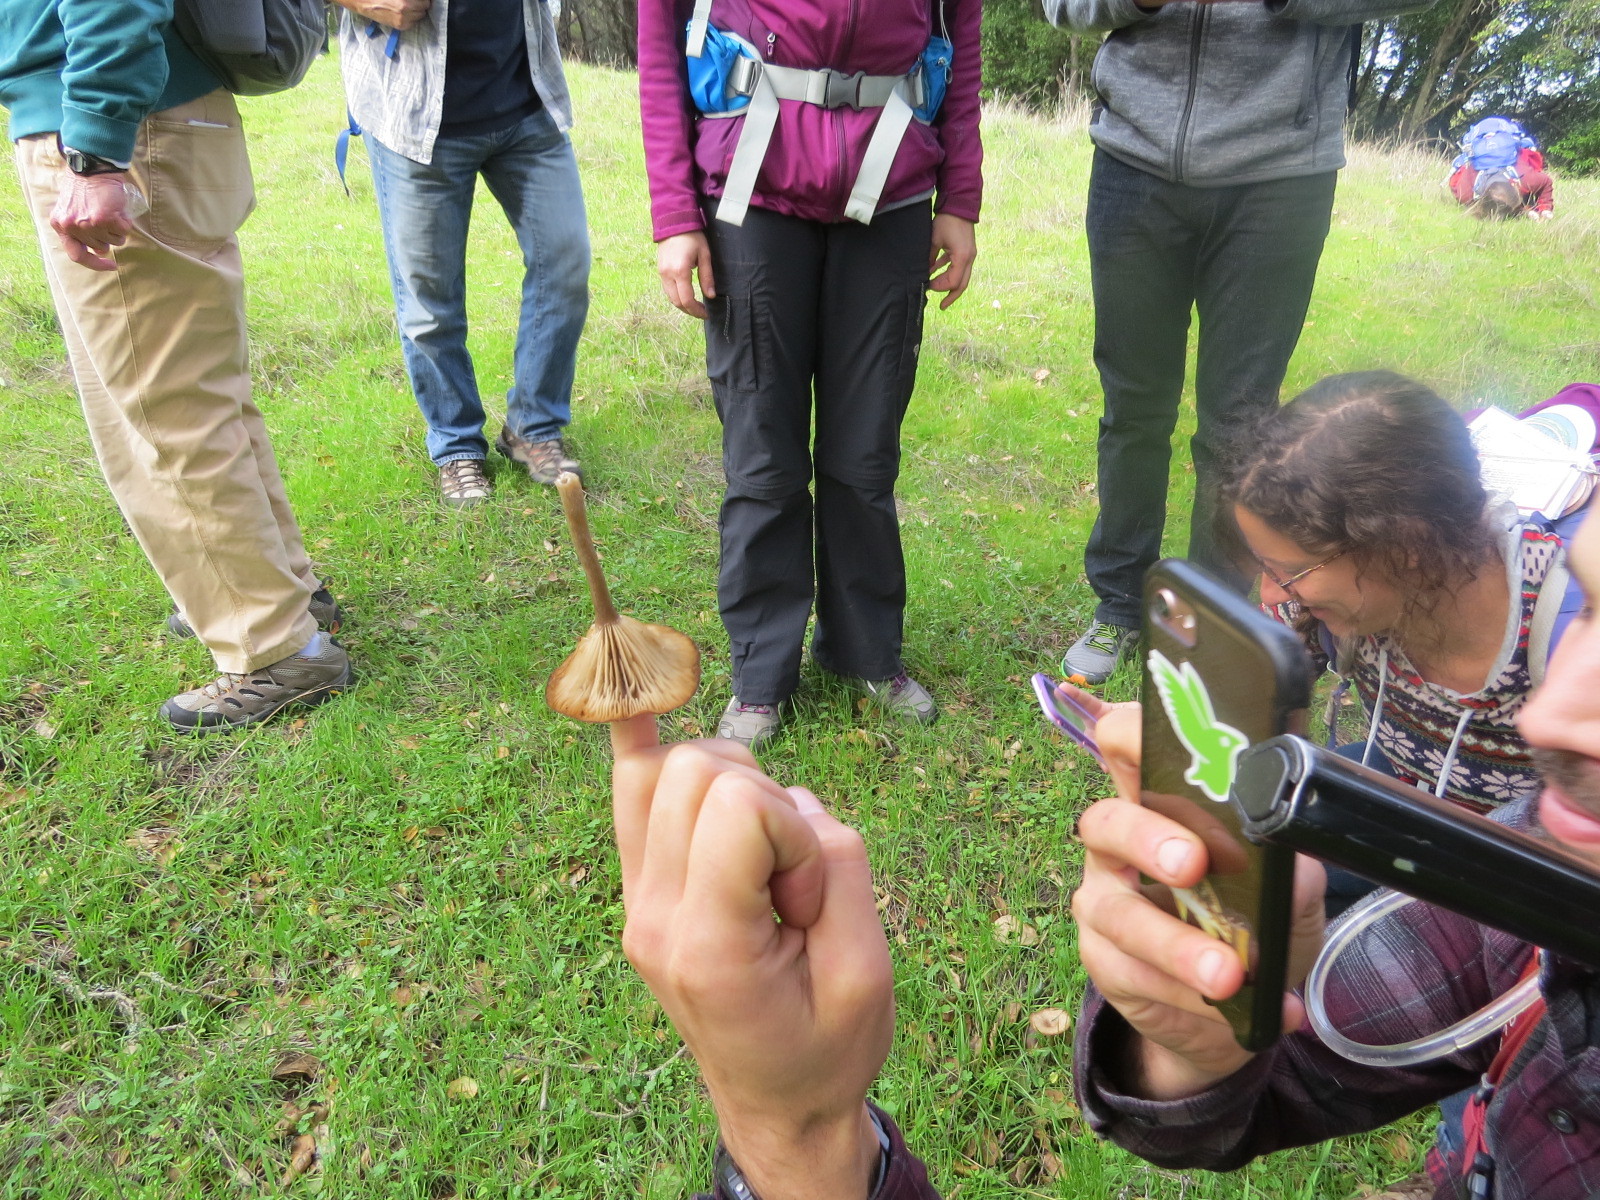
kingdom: Fungi
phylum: Basidiomycota
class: Agaricomycetes
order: Agaricales
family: Pseudoclitocybaceae
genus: Pseudoclitocybe
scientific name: Pseudoclitocybe cyathiformis
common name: Goblet
